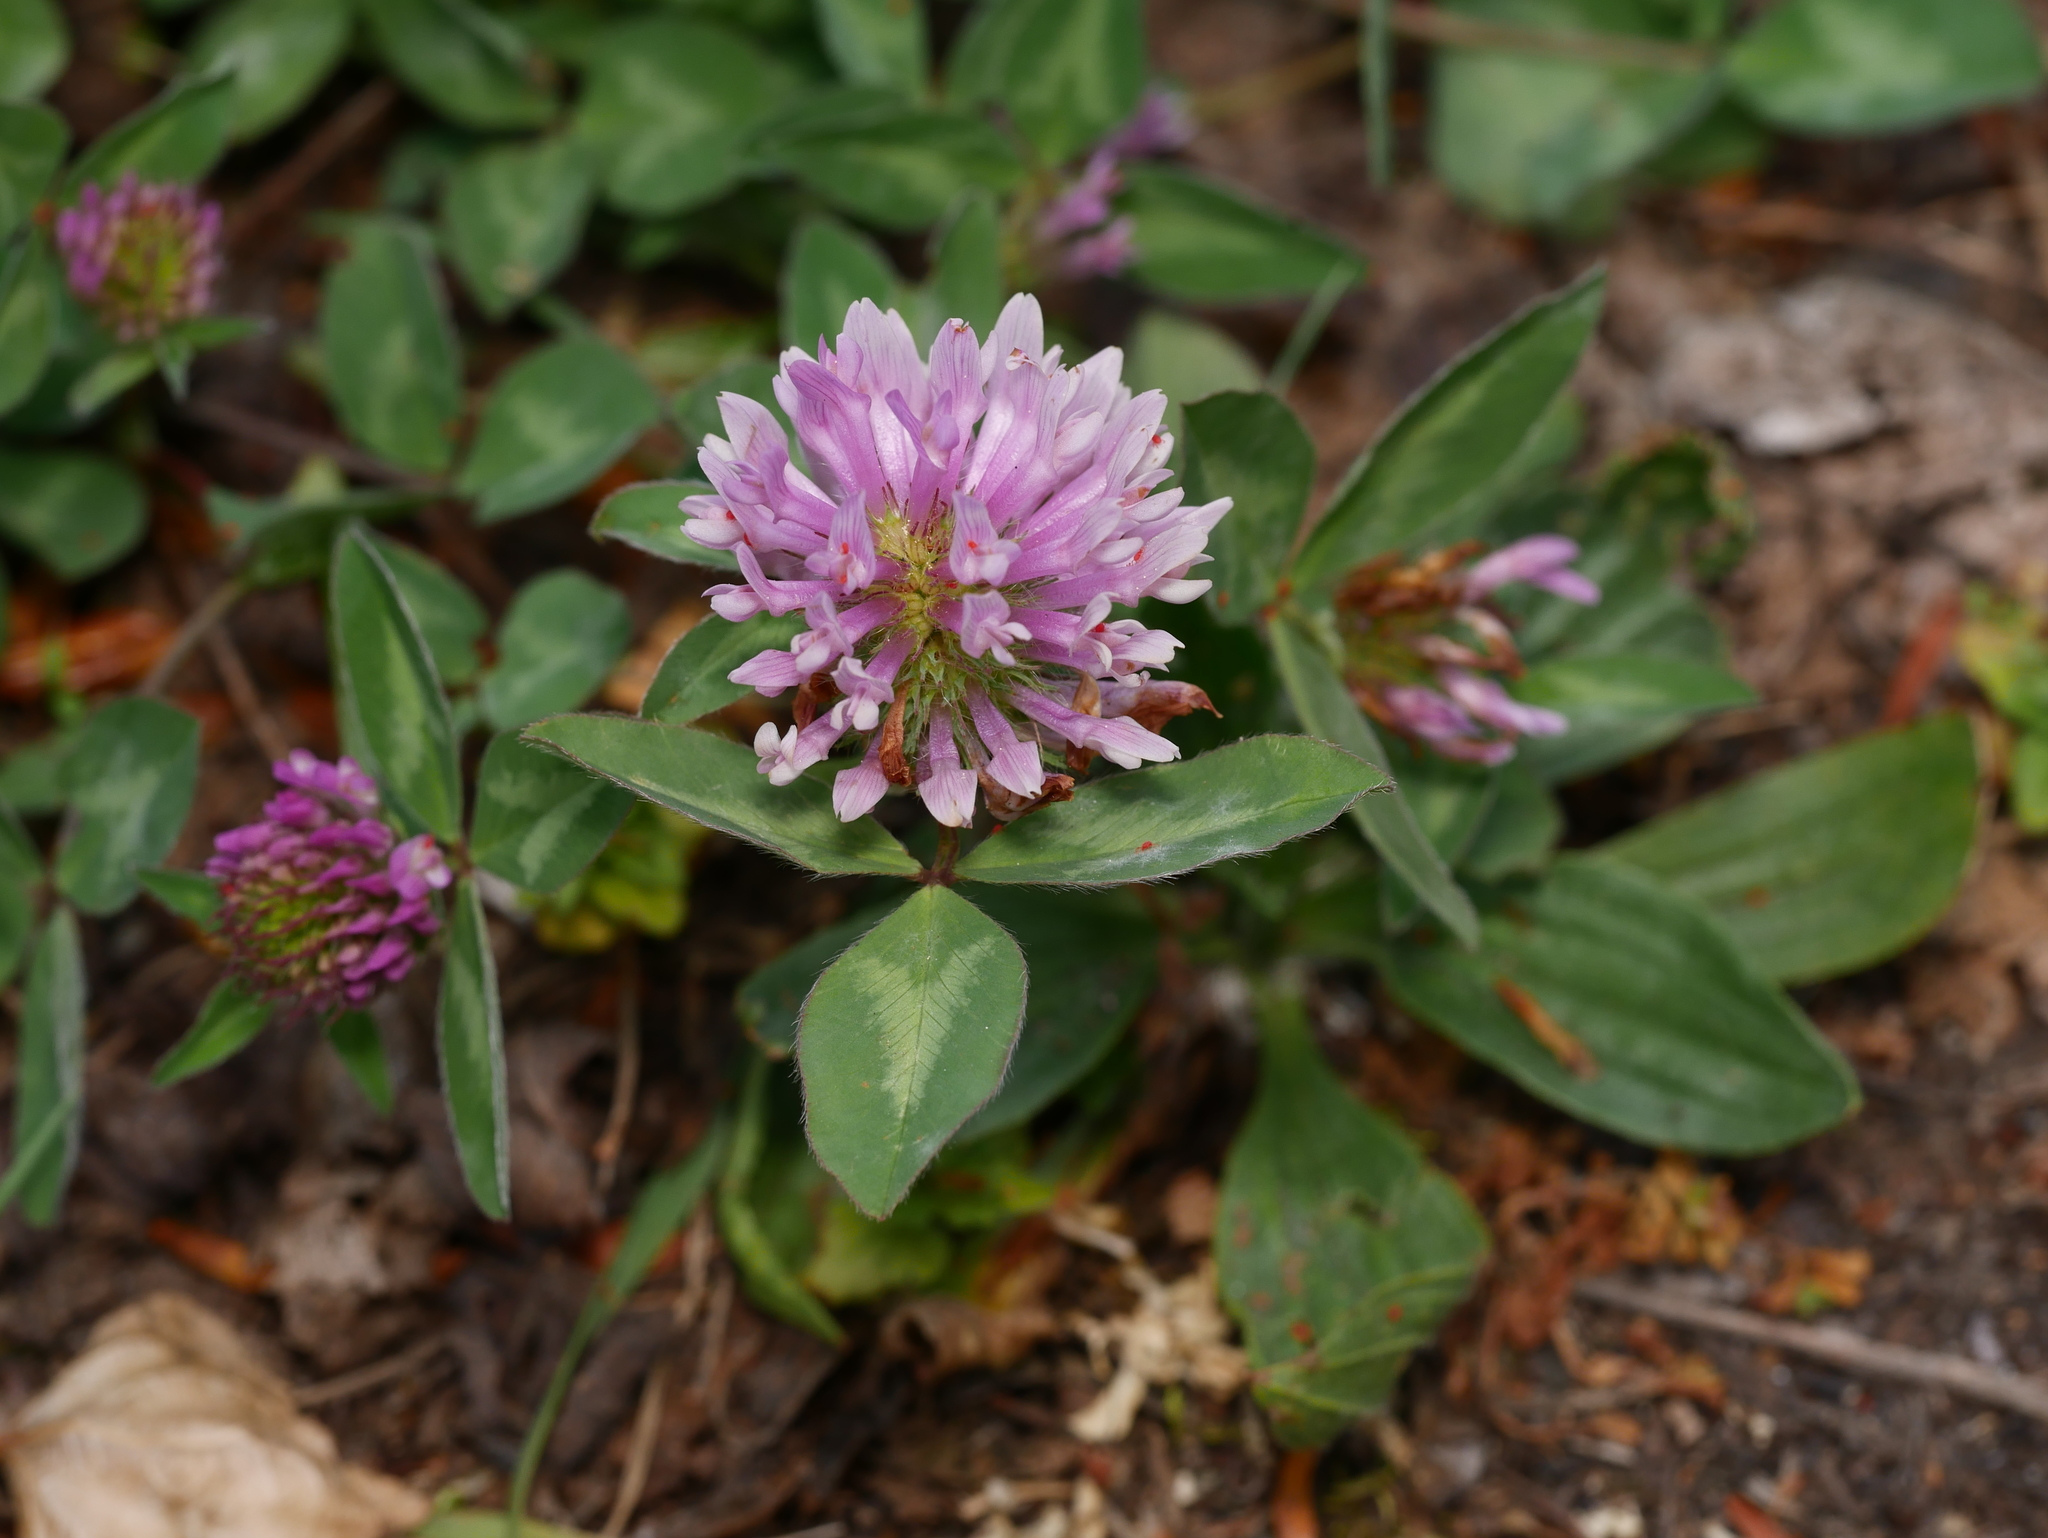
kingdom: Plantae
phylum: Tracheophyta
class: Magnoliopsida
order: Fabales
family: Fabaceae
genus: Trifolium
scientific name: Trifolium pratense
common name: Red clover
